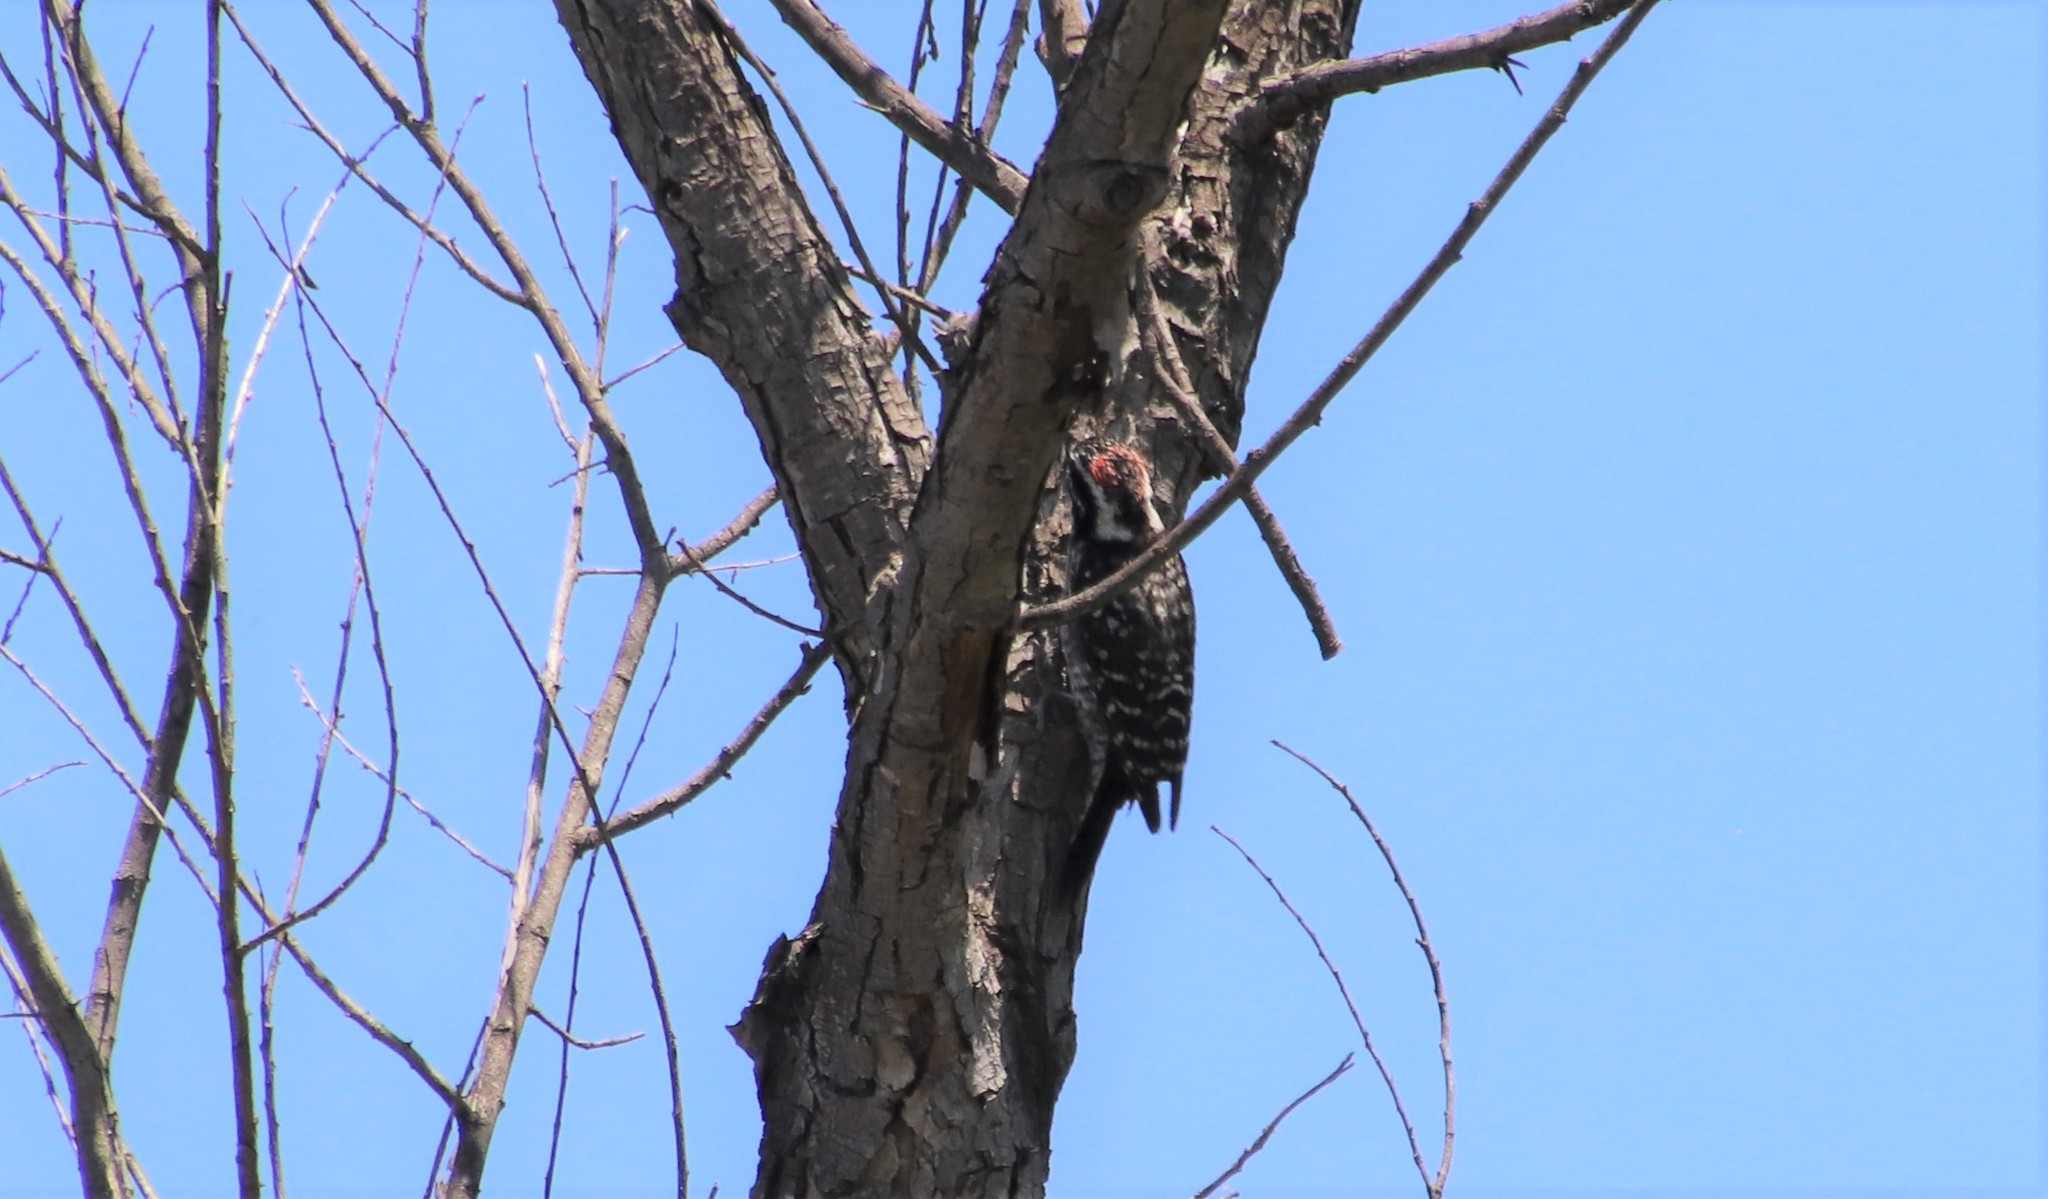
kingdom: Animalia
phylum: Chordata
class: Aves
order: Piciformes
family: Picidae
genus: Dryobates
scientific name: Dryobates nuttallii
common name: Nuttall's woodpecker
